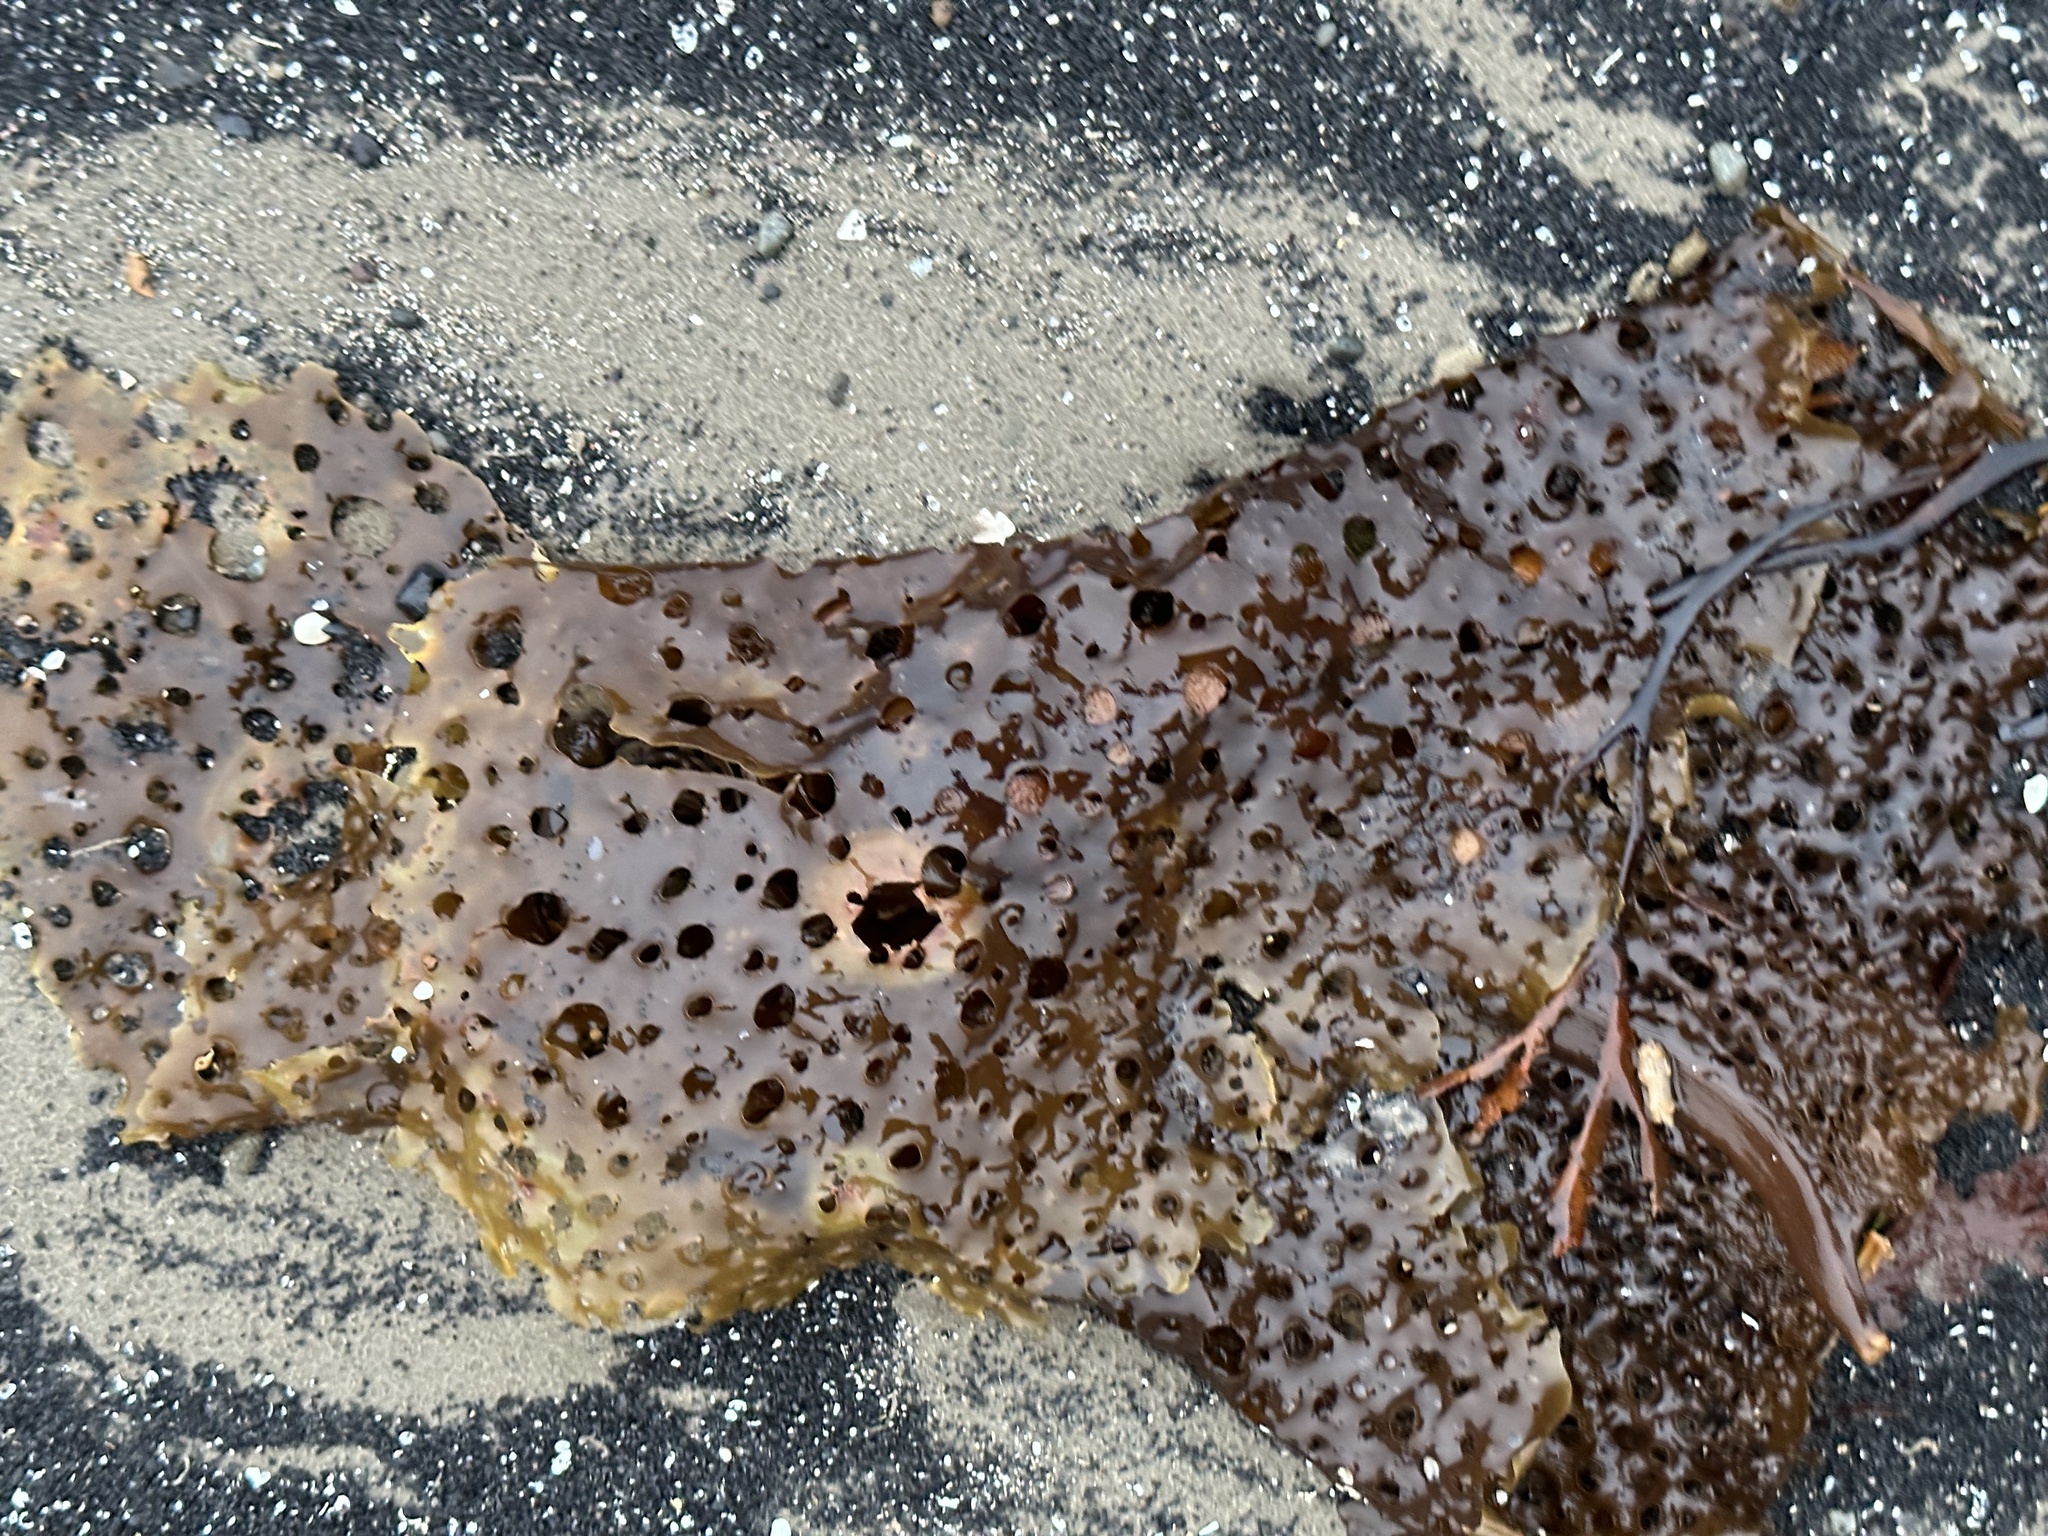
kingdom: Chromista
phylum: Ochrophyta
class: Phaeophyceae
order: Laminariales
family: Costariaceae
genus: Agarum
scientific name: Agarum clathratum
